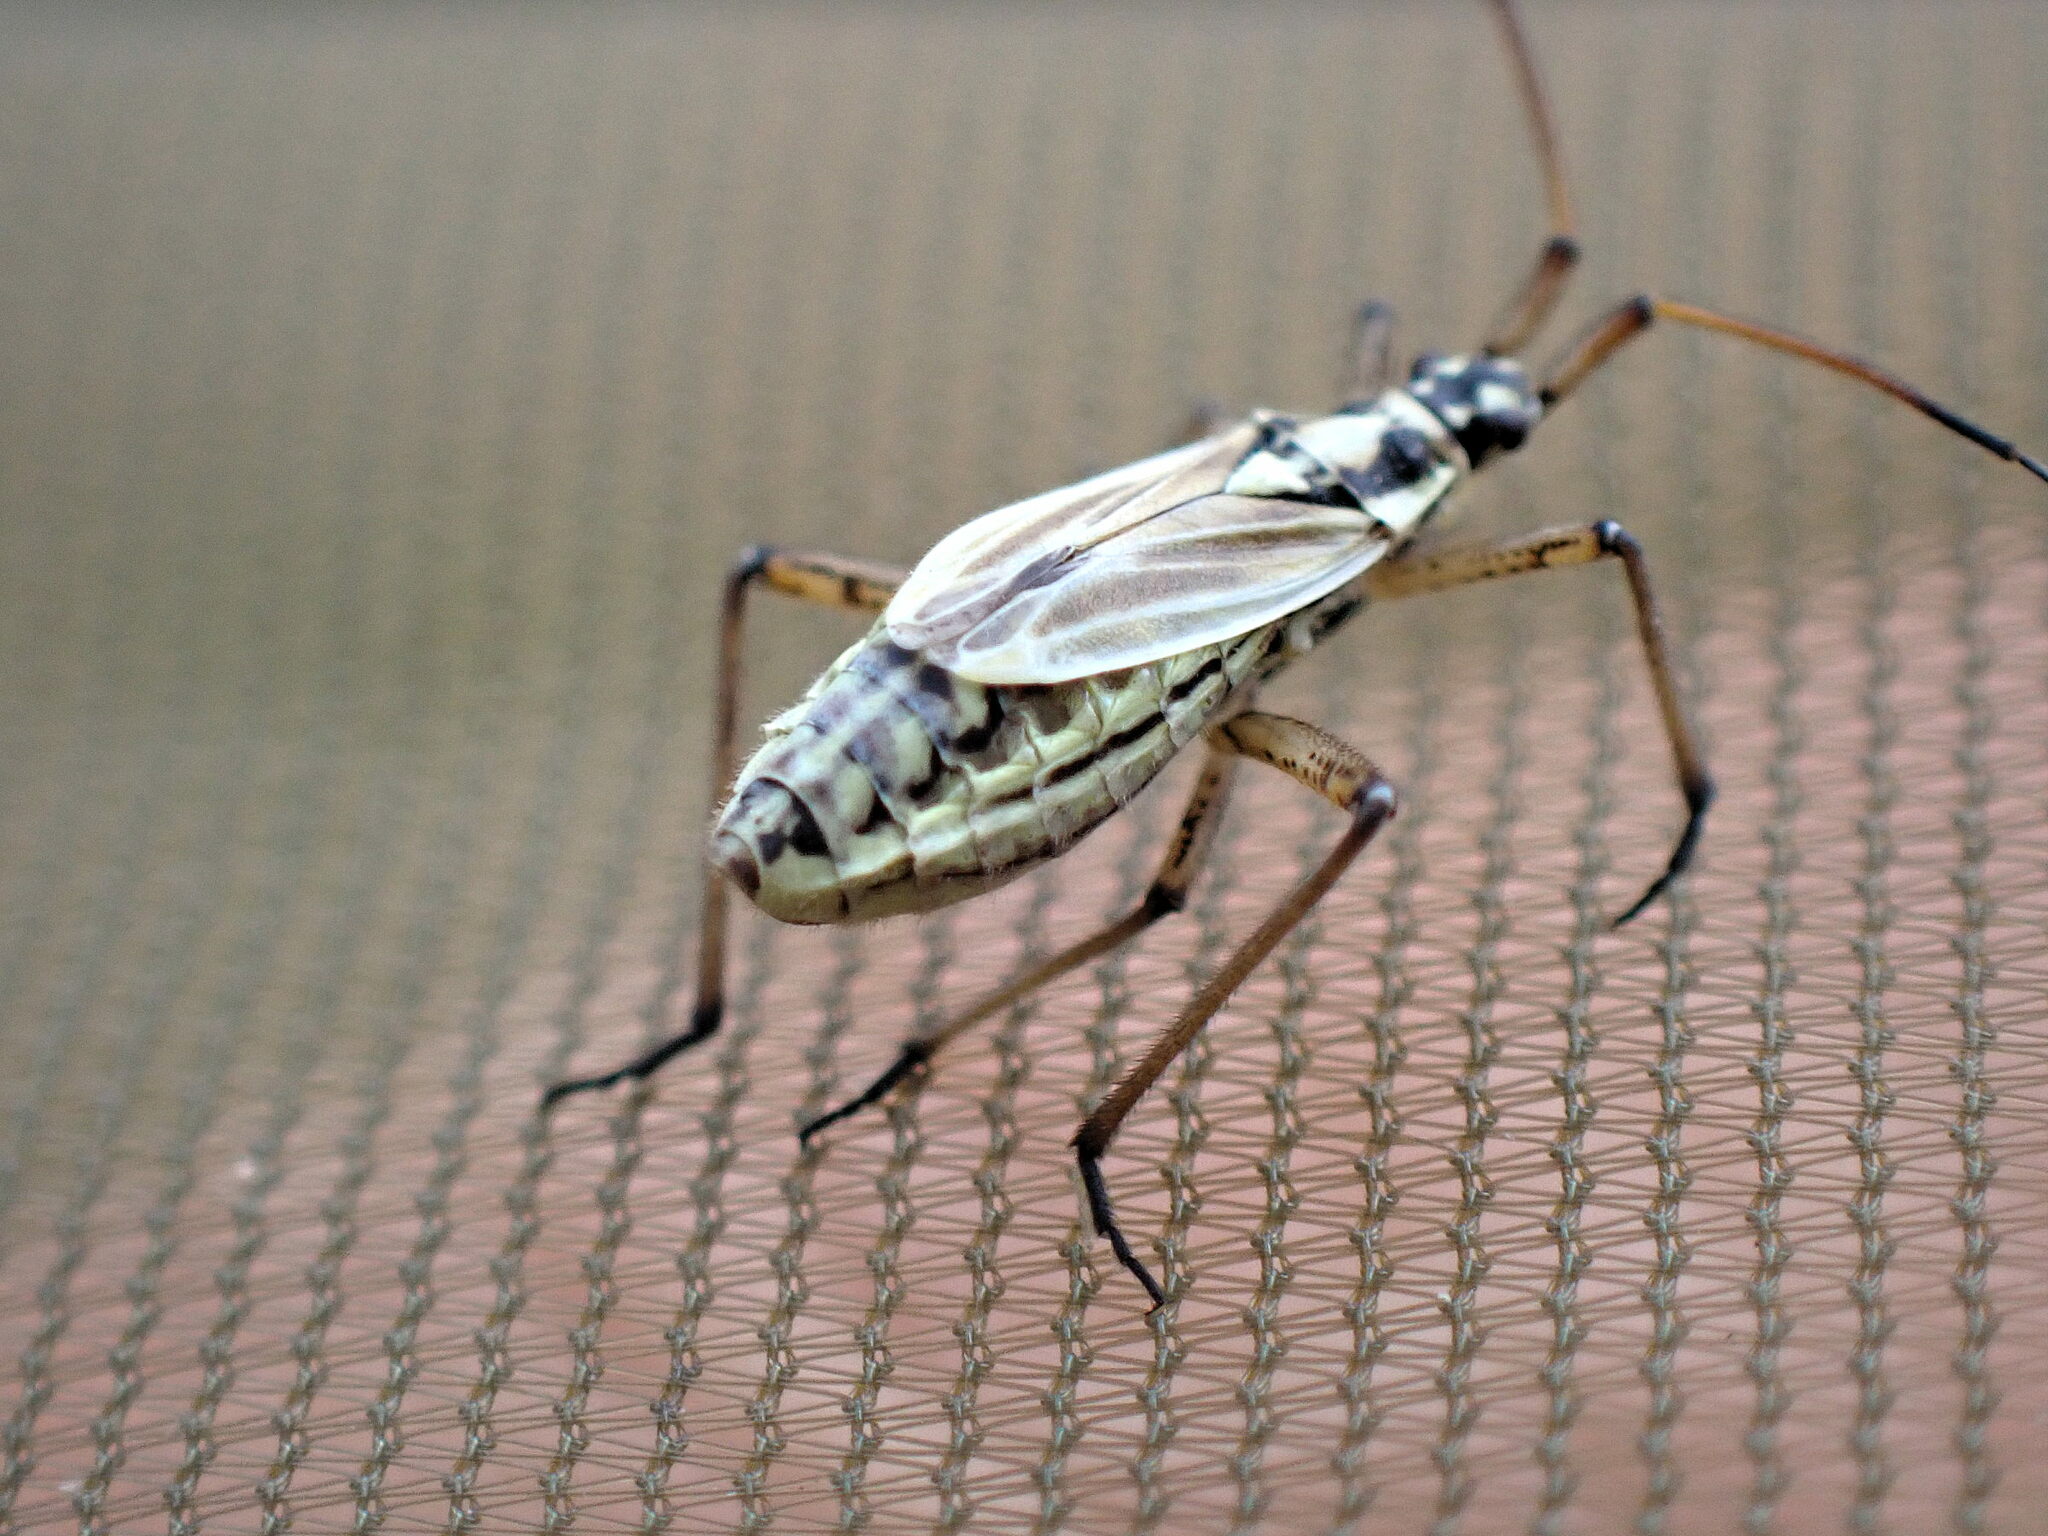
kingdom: Animalia
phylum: Arthropoda
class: Insecta
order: Hemiptera
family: Miridae
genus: Leptopterna
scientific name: Leptopterna dolabrata
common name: Meadow plant bug
